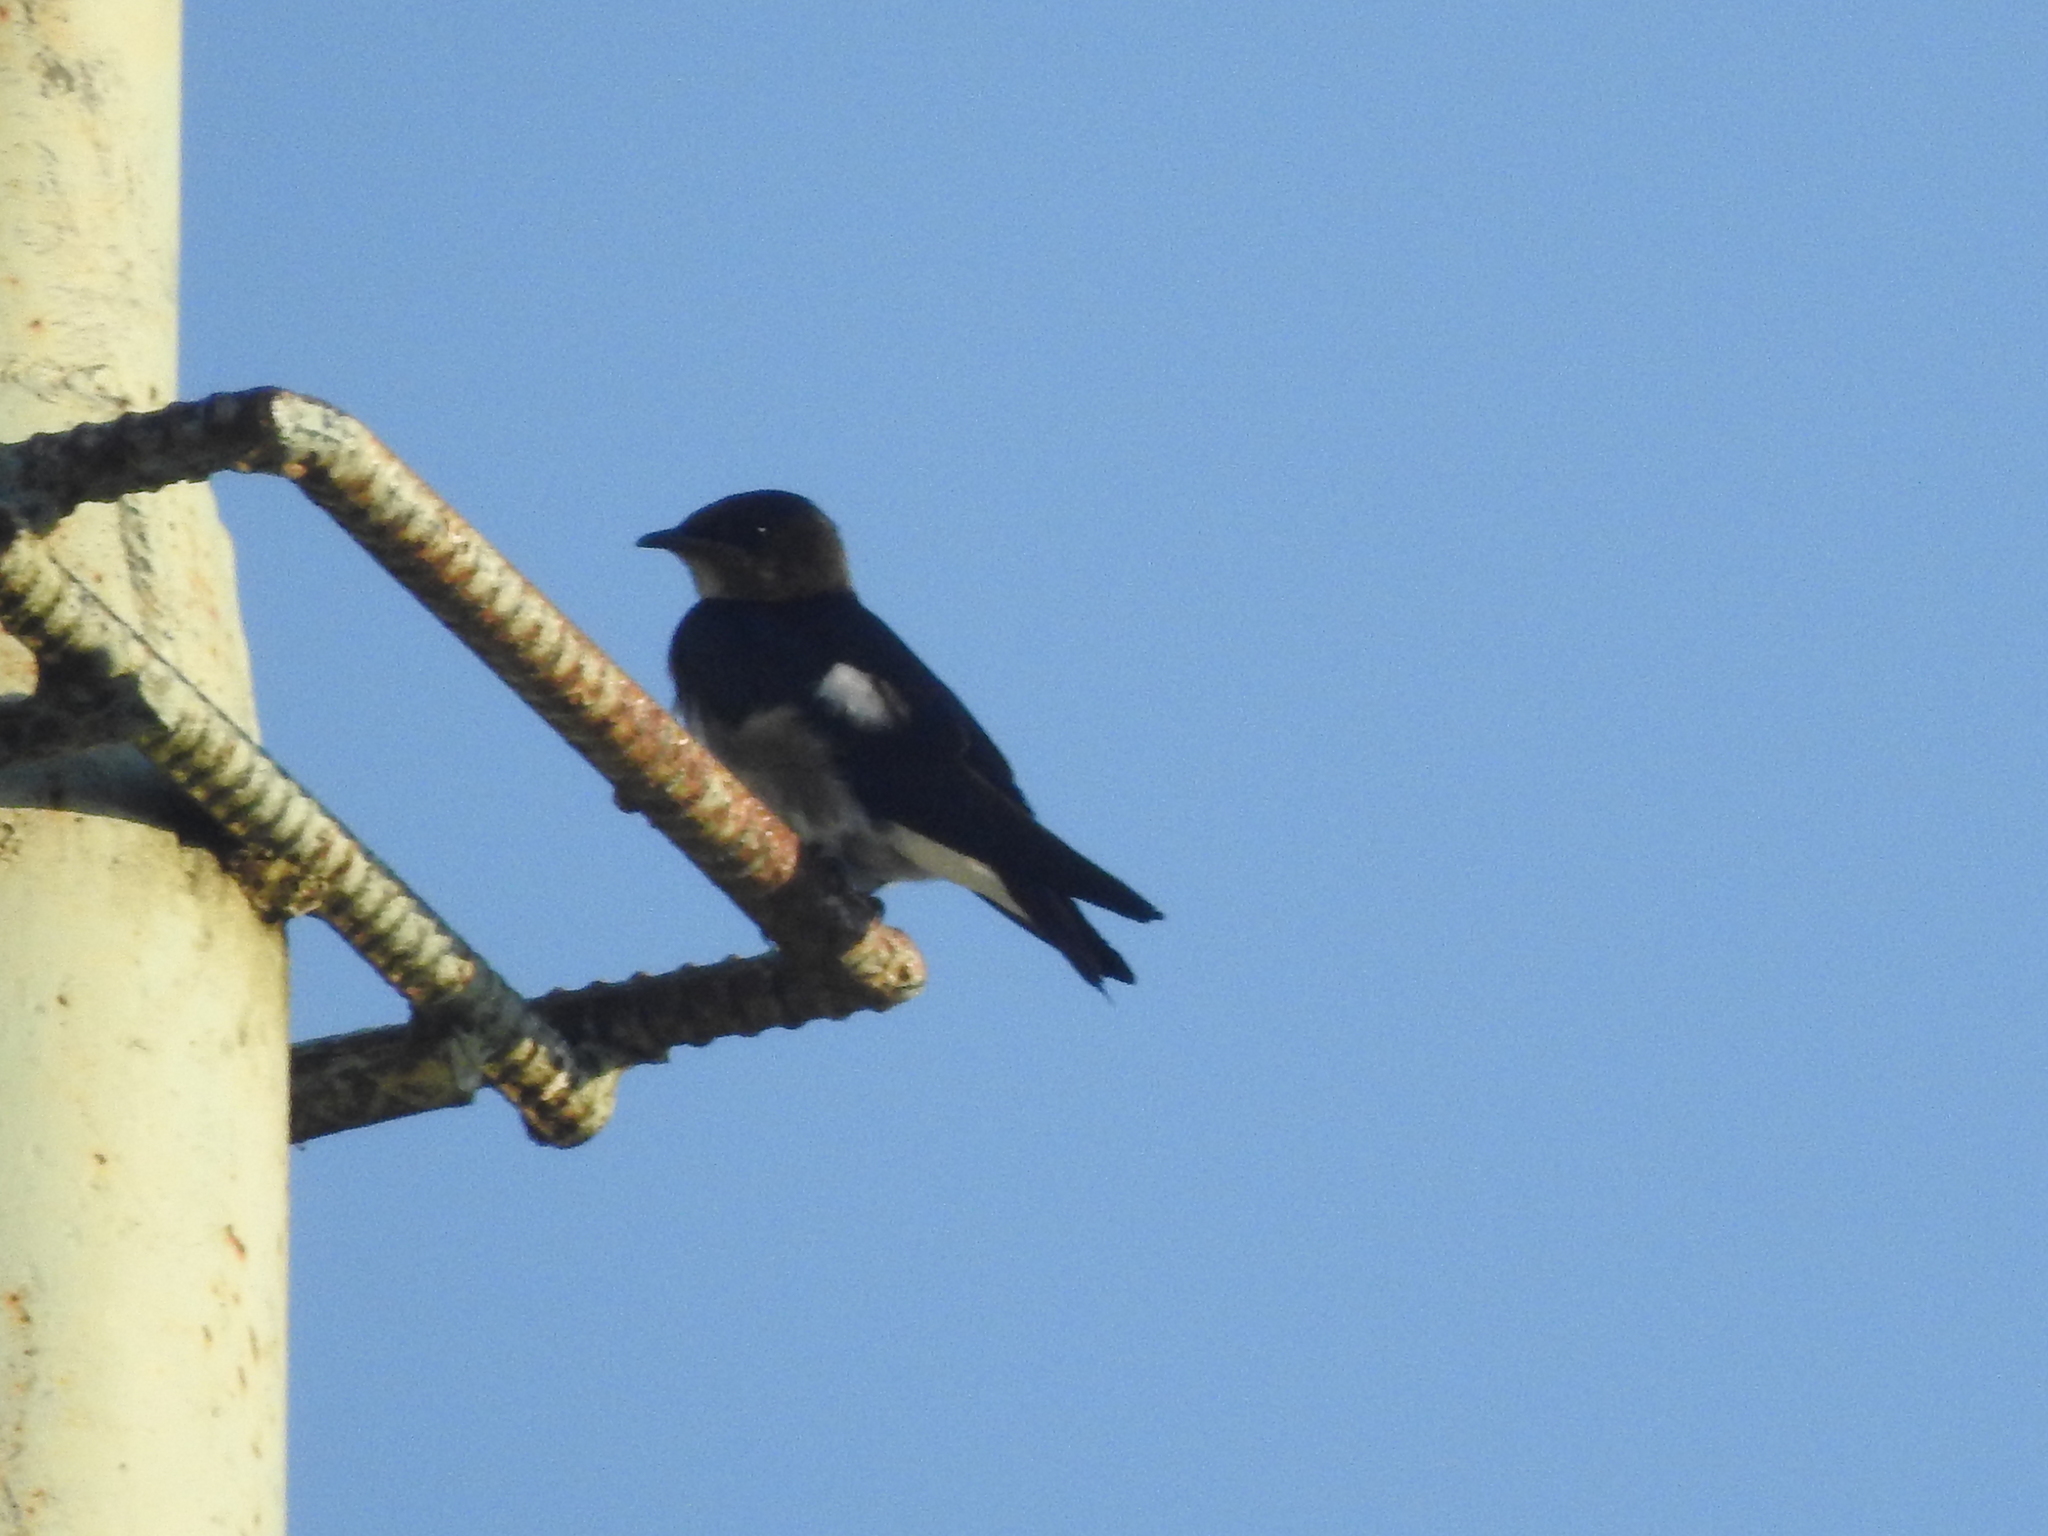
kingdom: Animalia
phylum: Chordata
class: Aves
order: Passeriformes
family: Hirundinidae
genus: Progne
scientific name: Progne chalybea
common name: Grey-breasted martin
